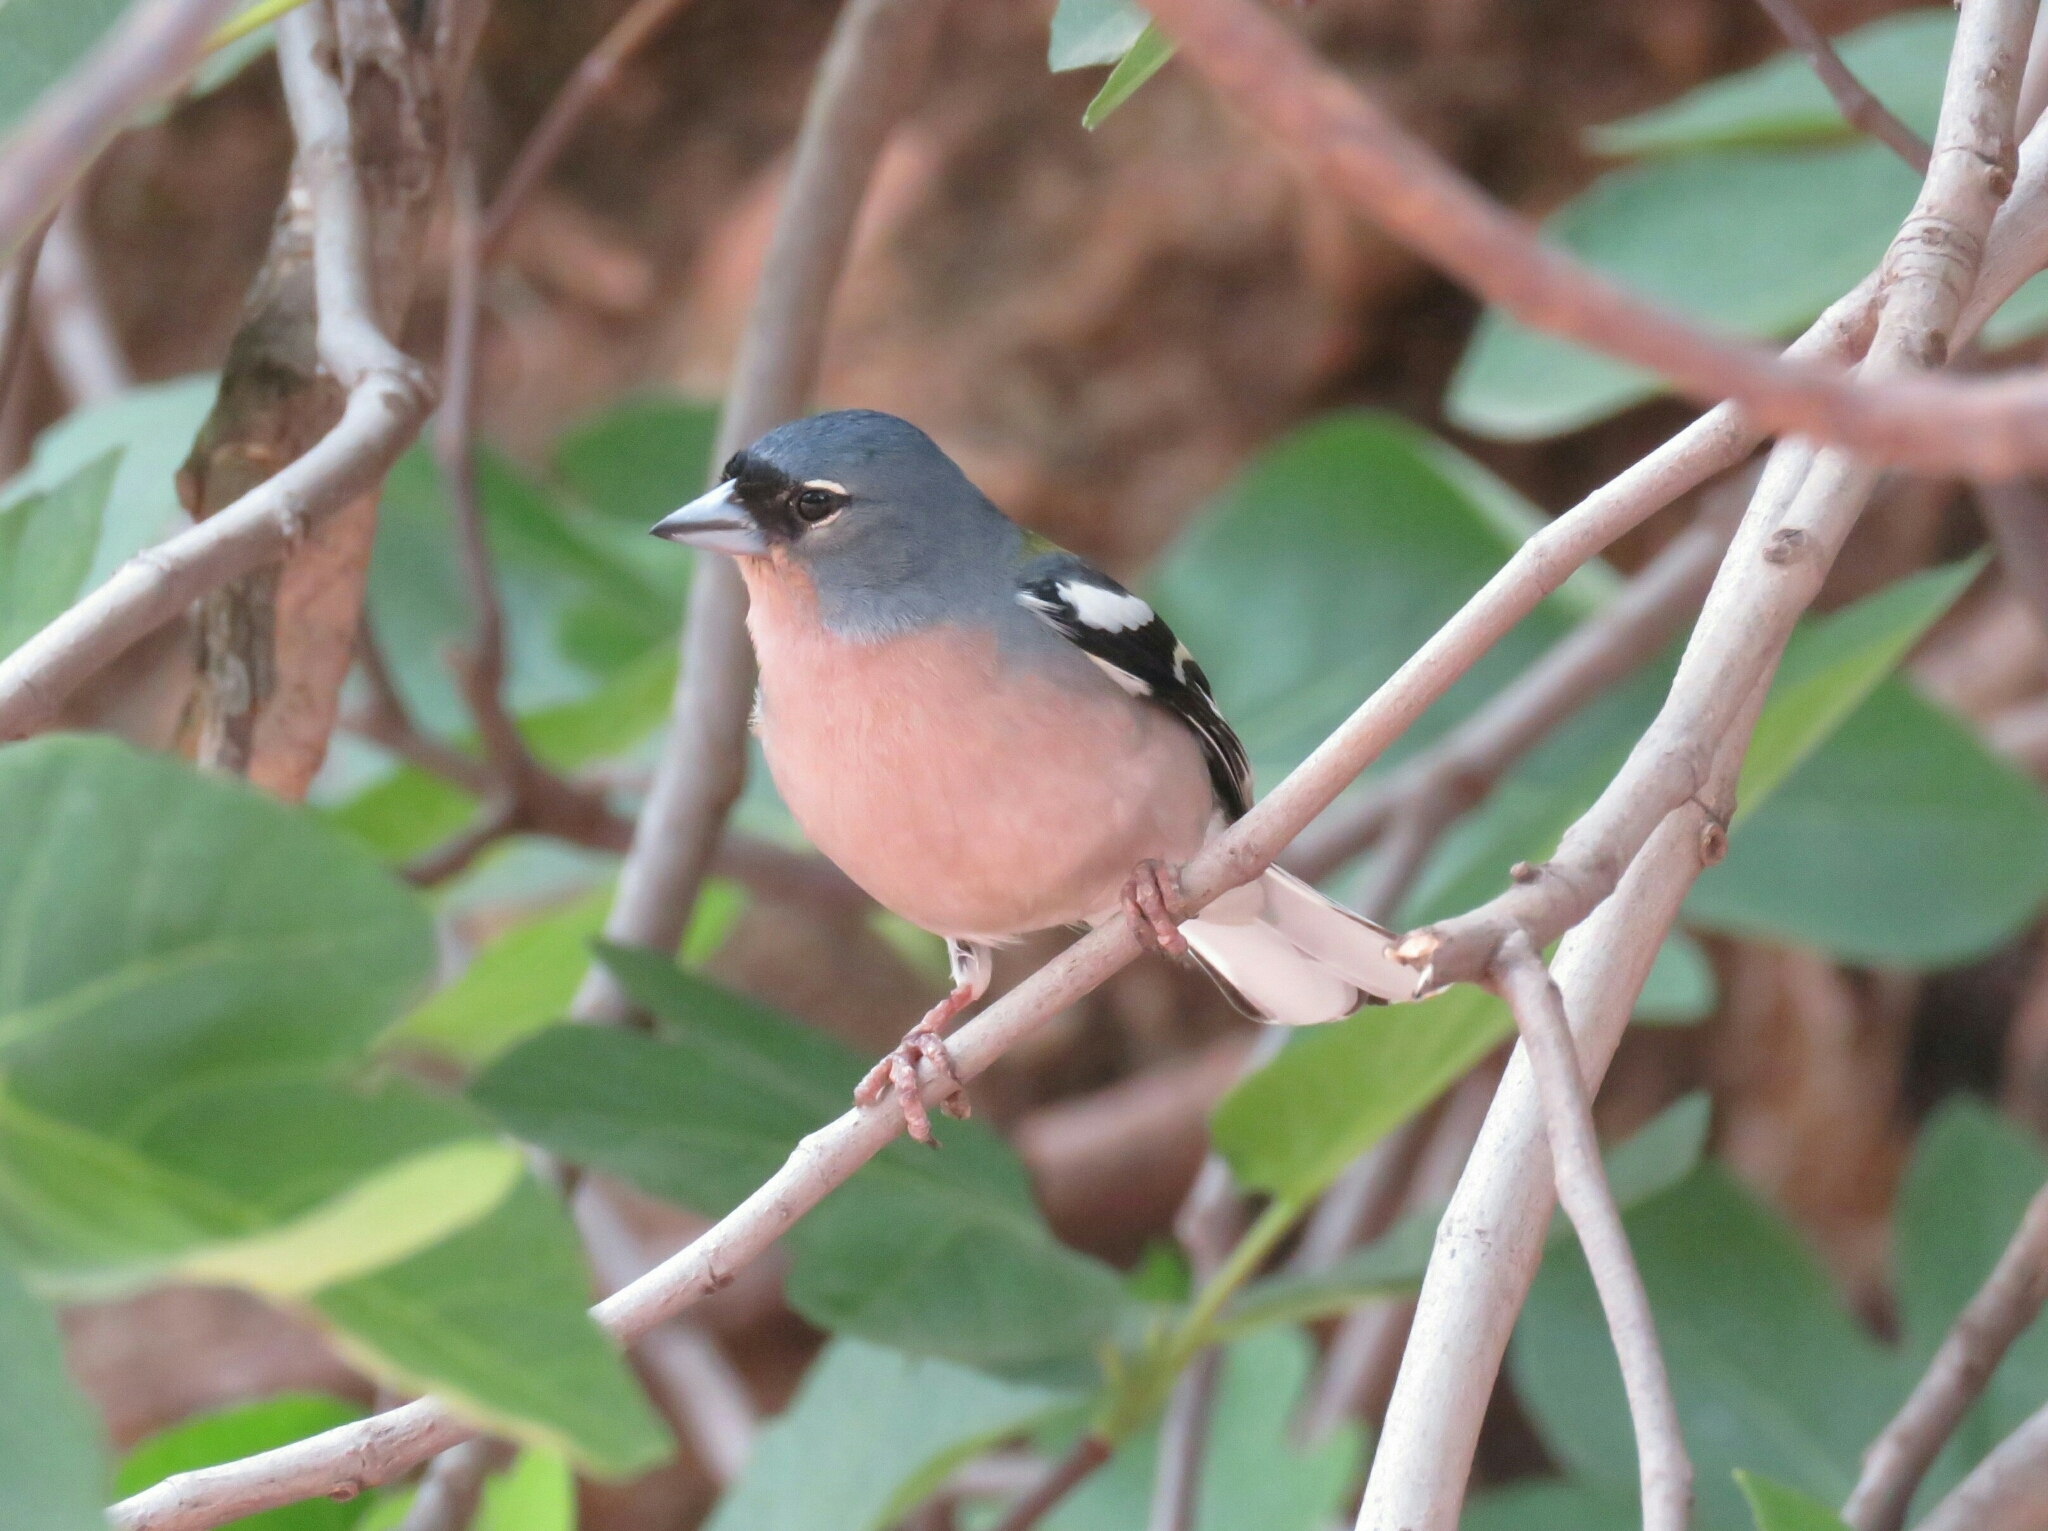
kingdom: Animalia
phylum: Chordata
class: Aves
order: Passeriformes
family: Fringillidae
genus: Fringilla
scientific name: Fringilla spodiogenys
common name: African chaffinch
